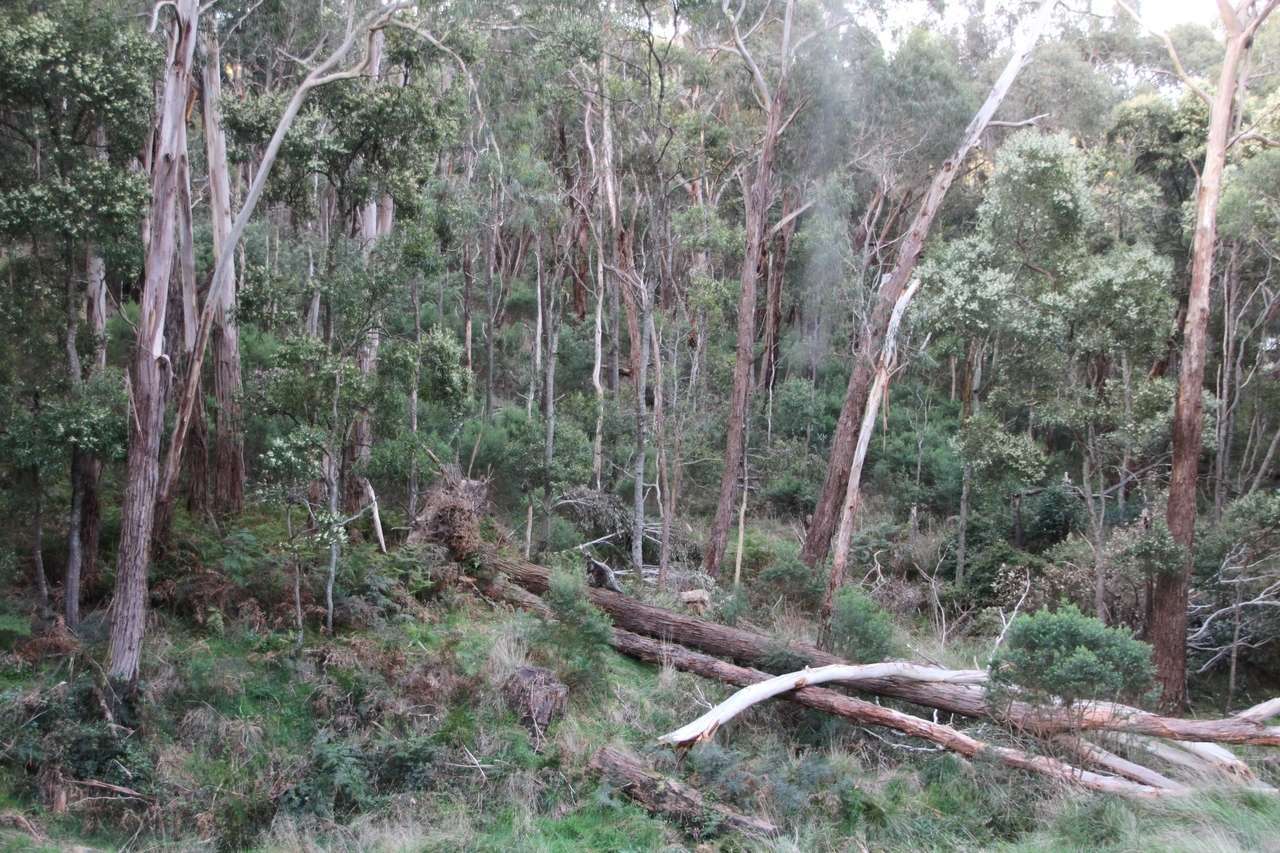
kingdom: Animalia
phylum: Chordata
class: Mammalia
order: Diprotodontia
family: Macropodidae
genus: Wallabia
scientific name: Wallabia bicolor
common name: Swamp wallaby
